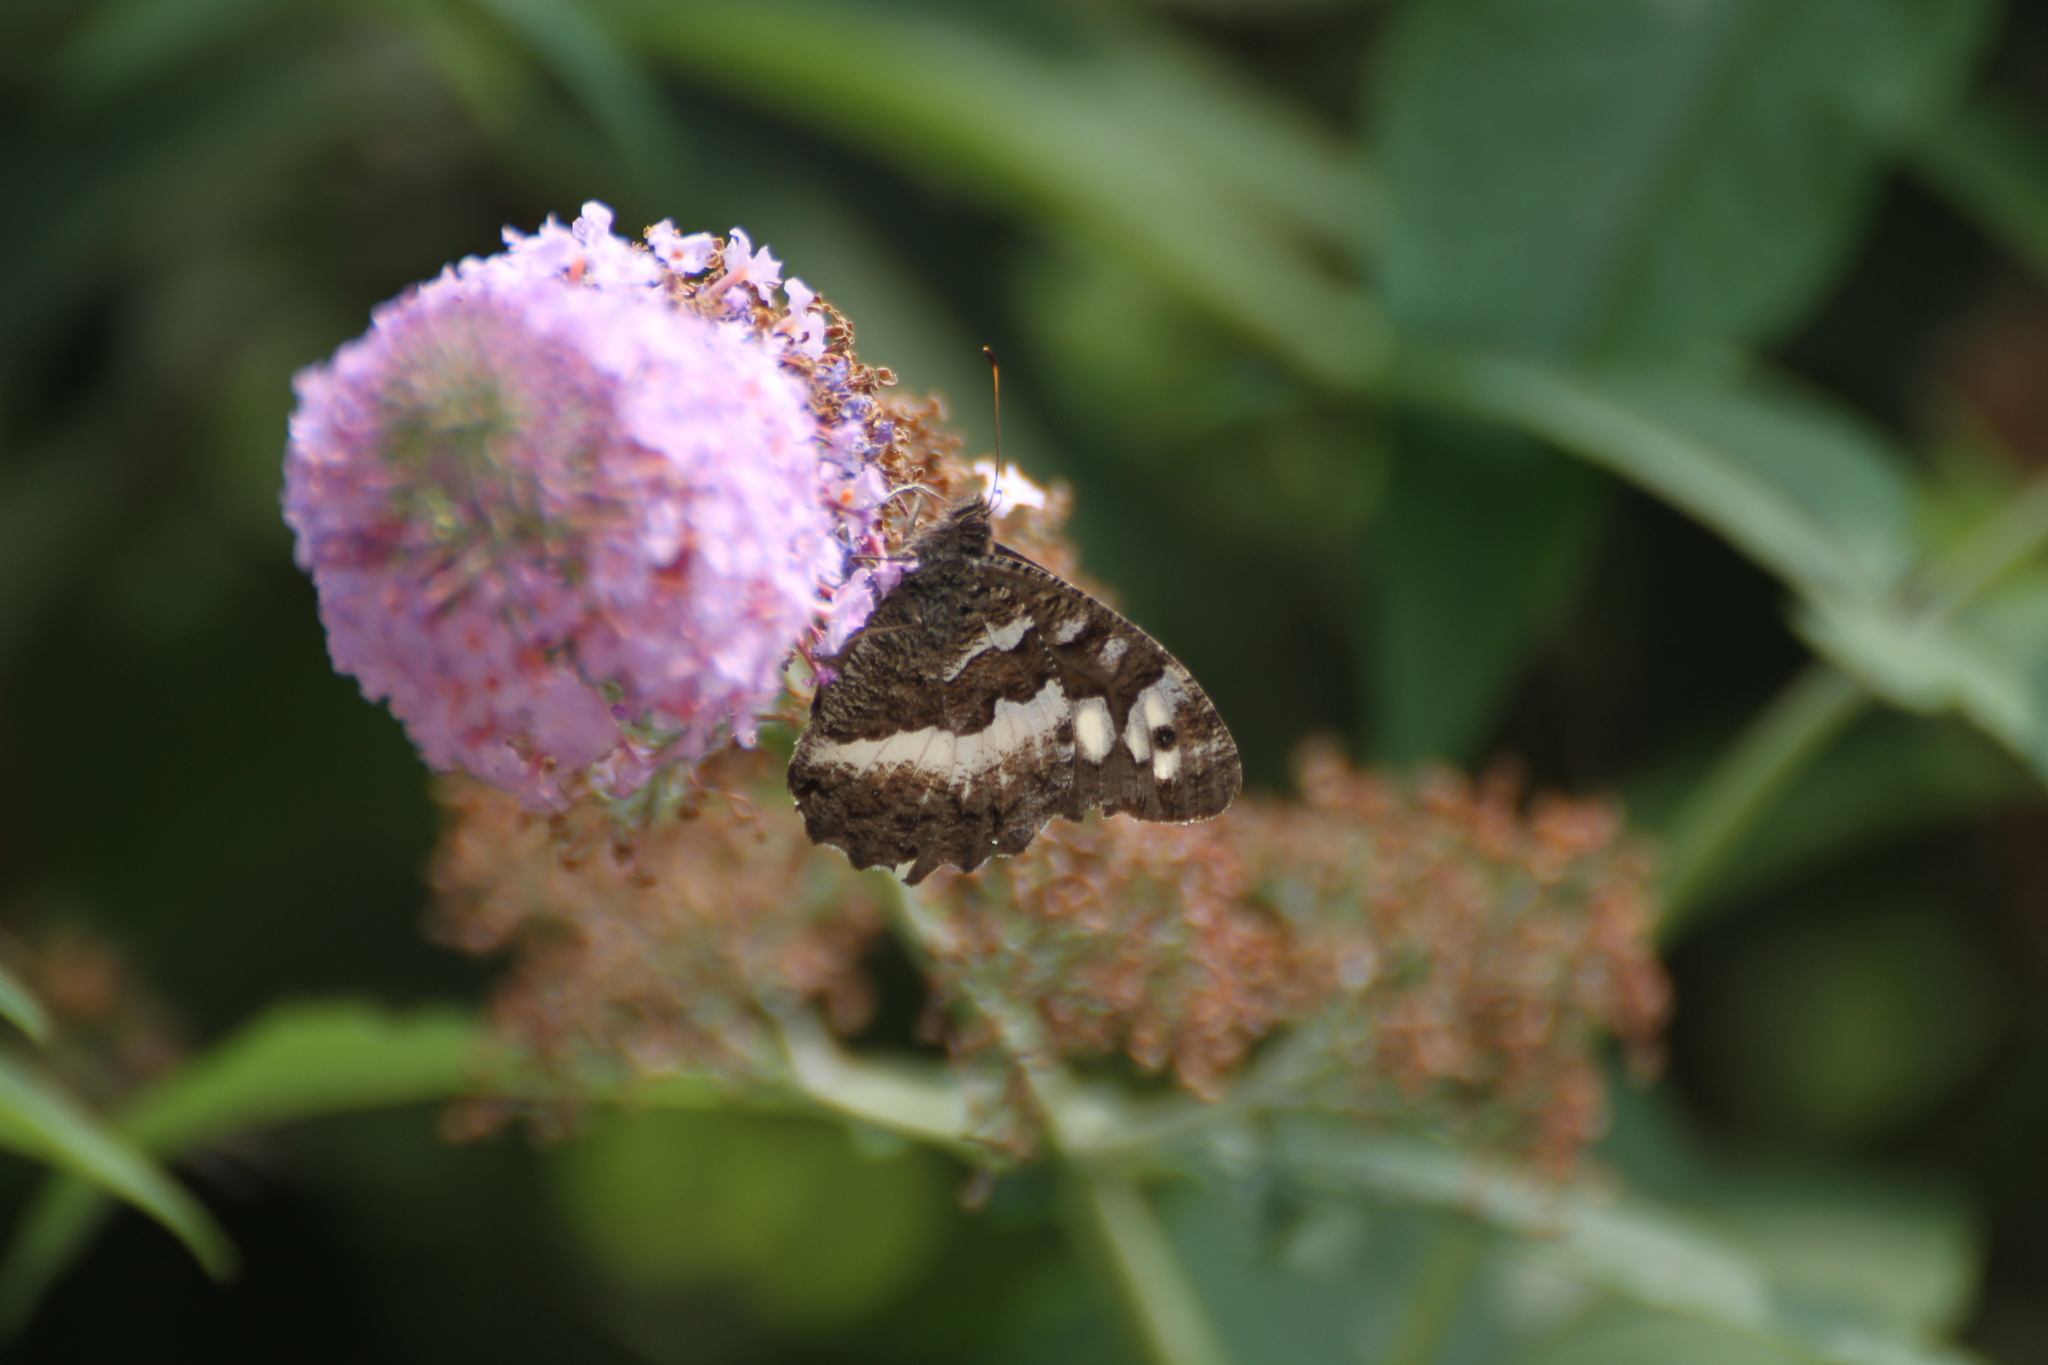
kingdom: Animalia
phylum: Arthropoda
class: Insecta
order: Lepidoptera
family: Lycaenidae
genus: Loweia
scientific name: Loweia tityrus
